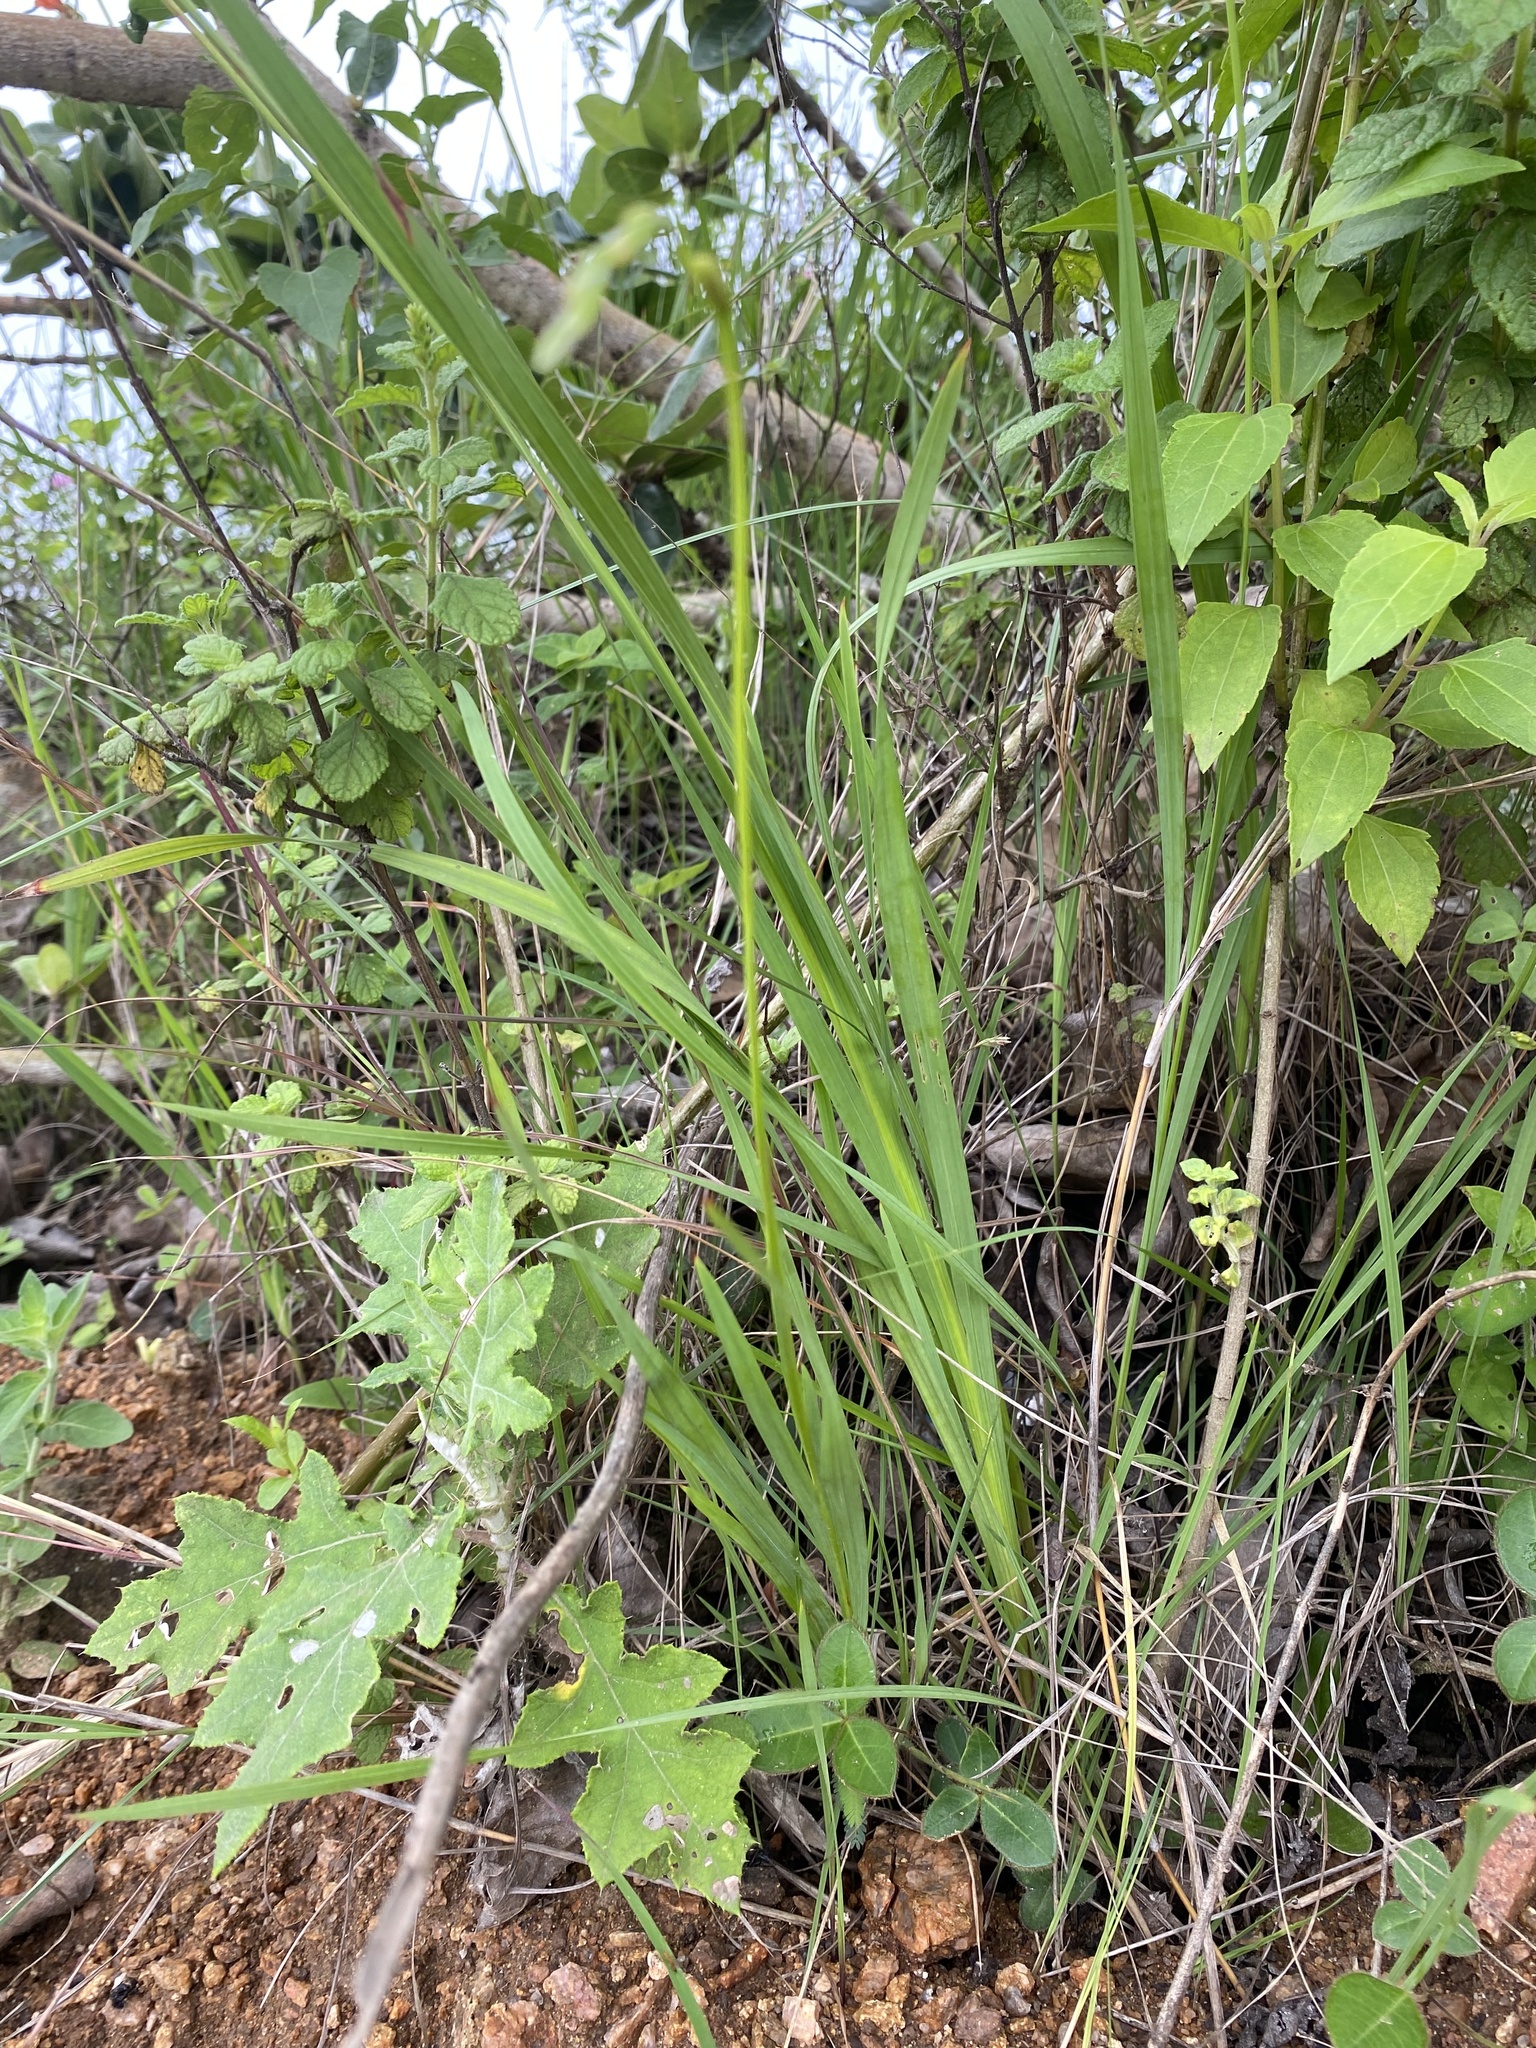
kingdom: Plantae
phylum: Tracheophyta
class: Liliopsida
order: Asparagales
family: Iridaceae
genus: Tritonia
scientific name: Tritonia disticha
